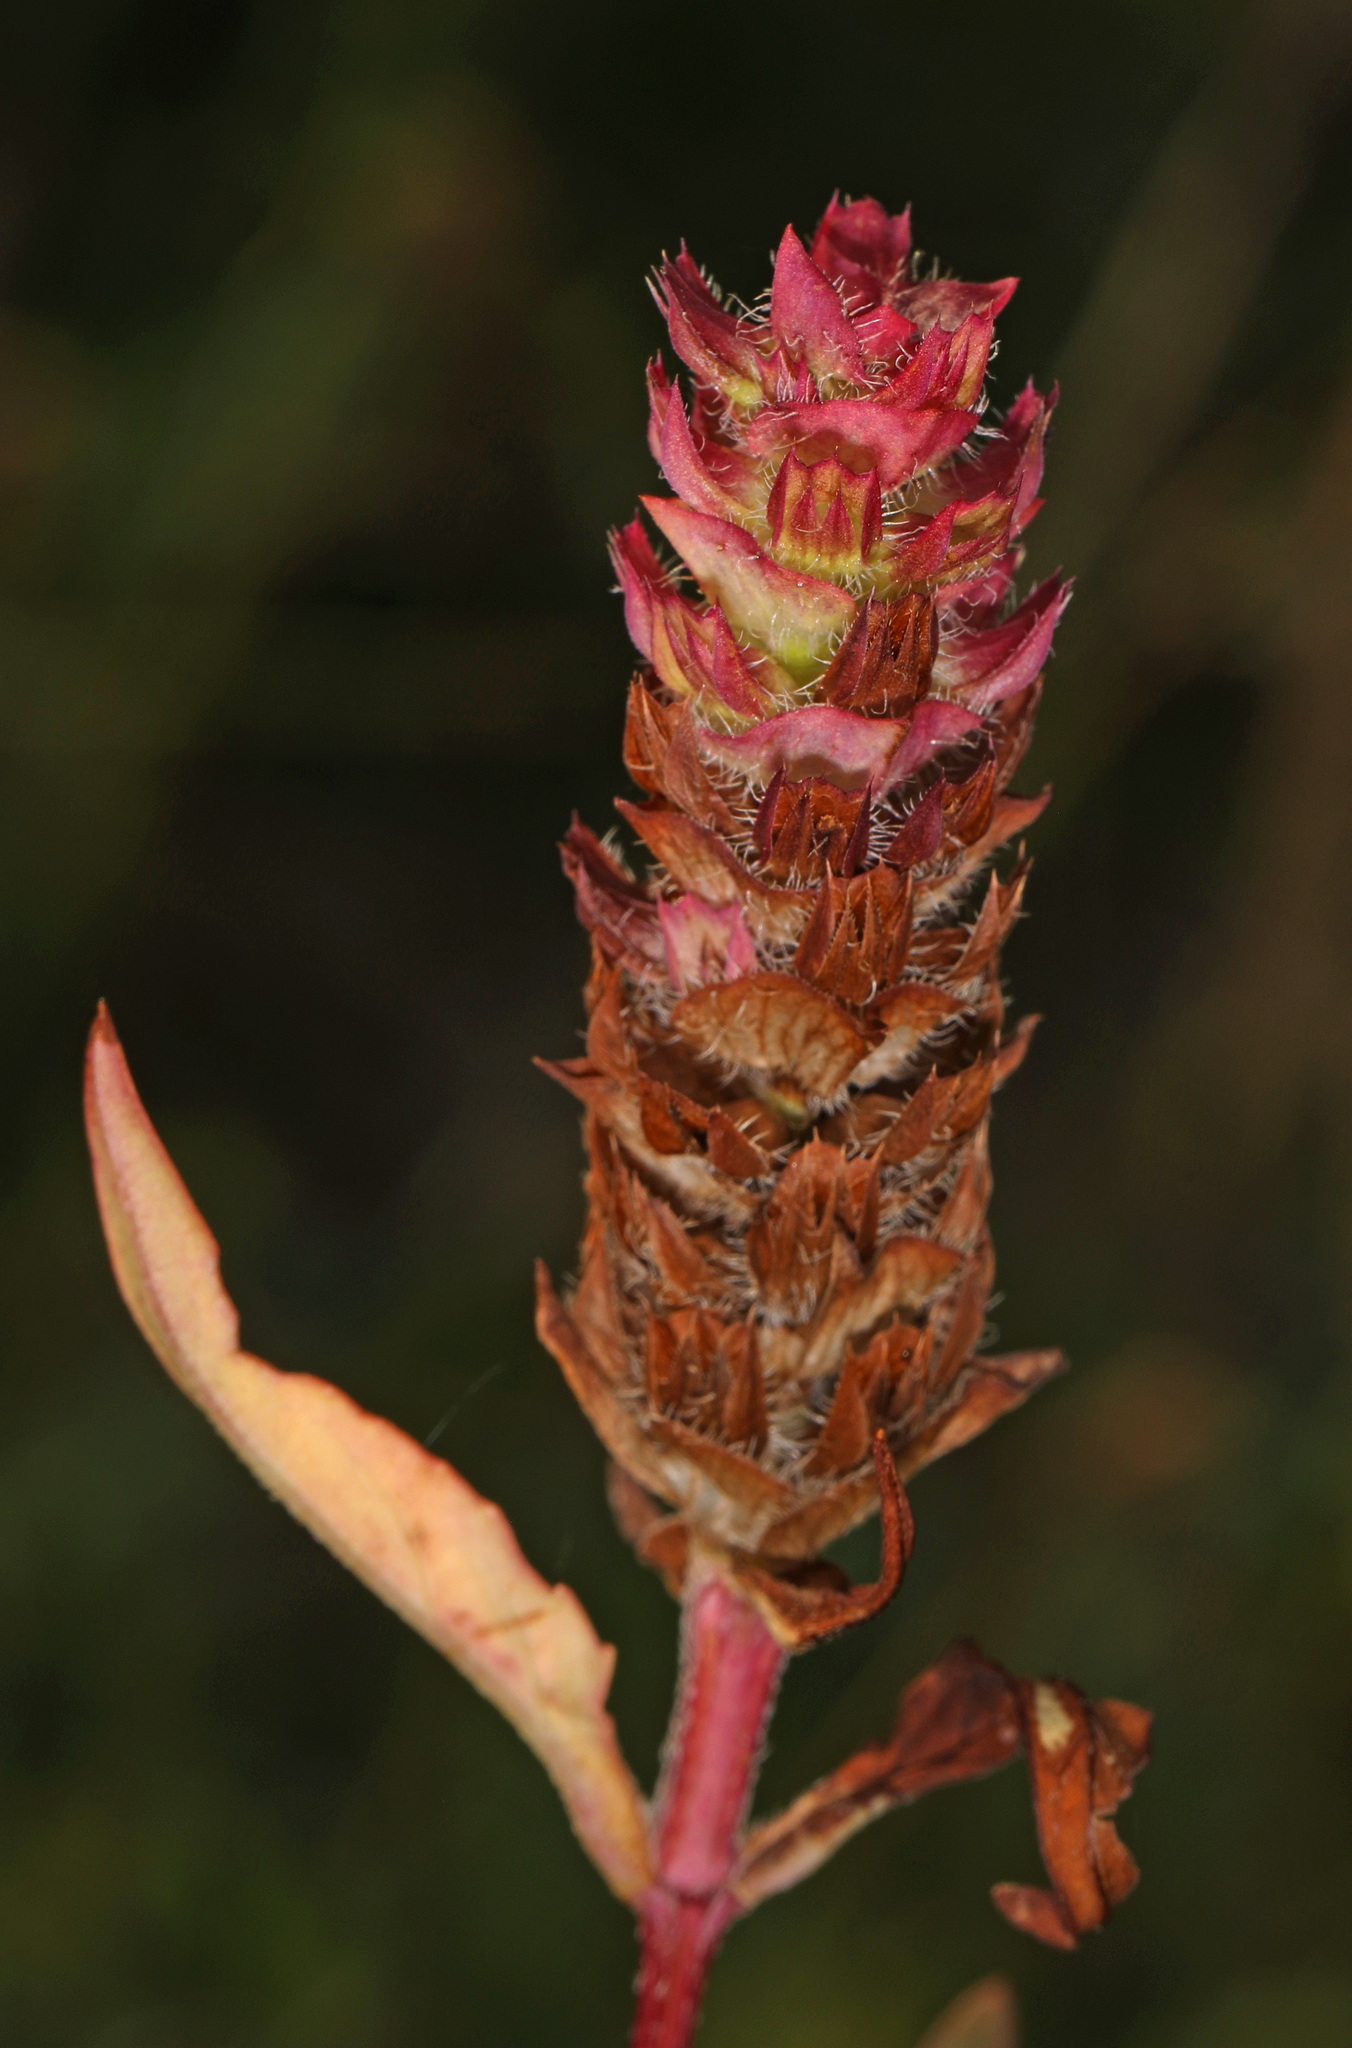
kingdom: Plantae
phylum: Tracheophyta
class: Magnoliopsida
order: Lamiales
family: Lamiaceae
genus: Prunella
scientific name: Prunella vulgaris
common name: Heal-all
